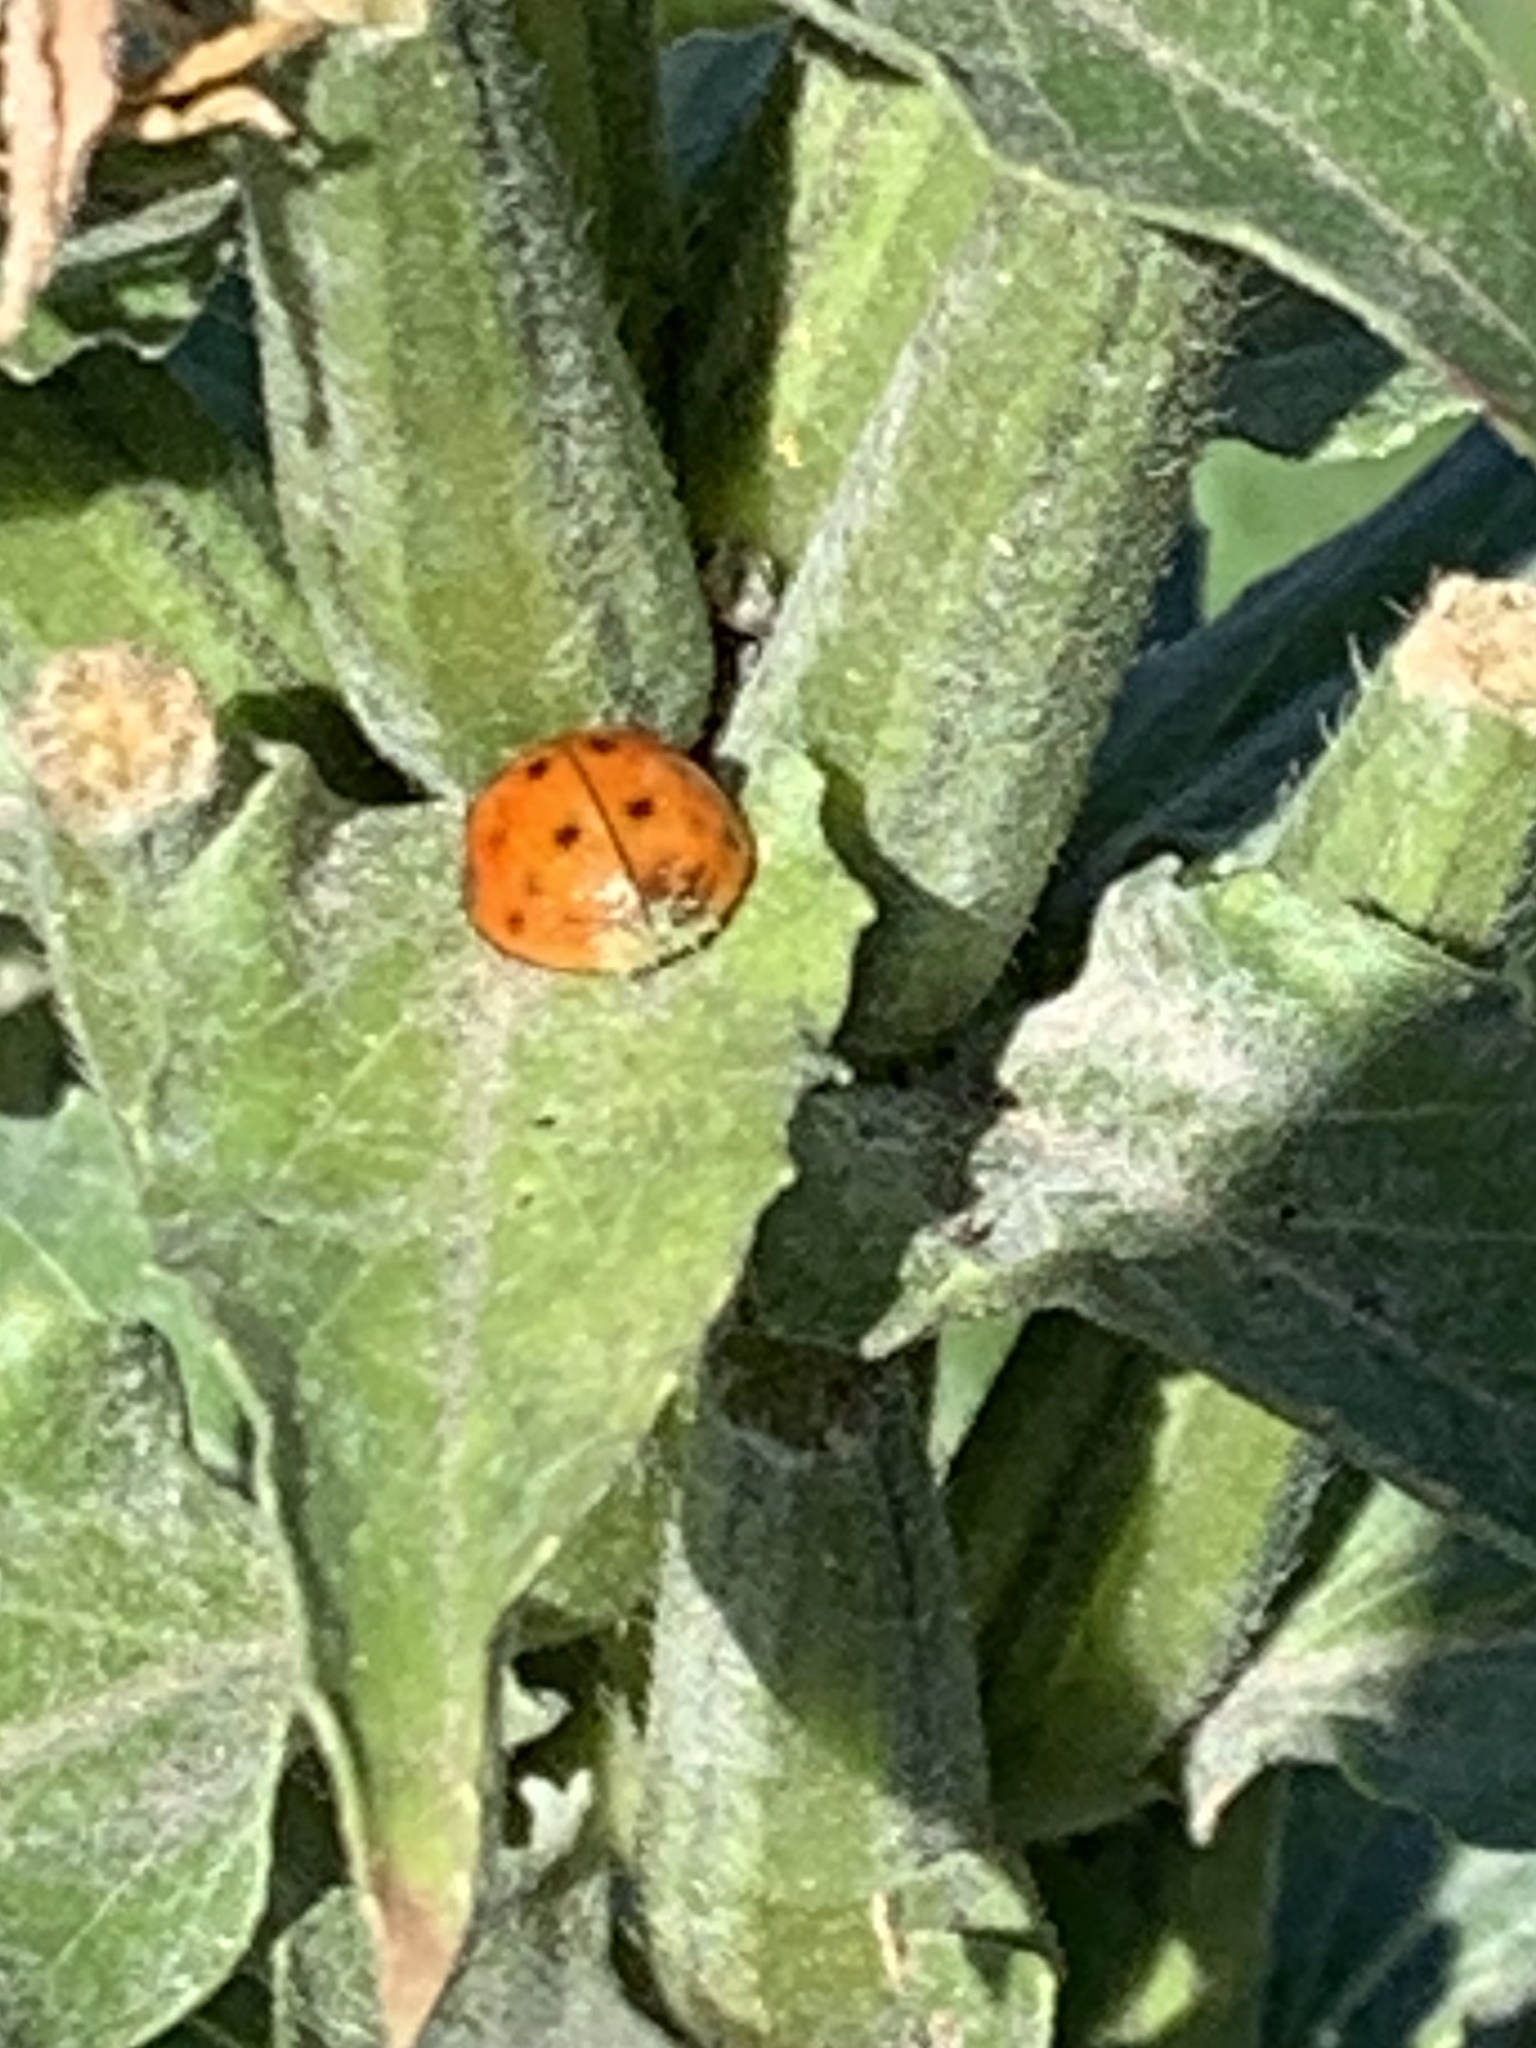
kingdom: Animalia
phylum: Arthropoda
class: Insecta
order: Coleoptera
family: Coccinellidae
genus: Harmonia
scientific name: Harmonia axyridis
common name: Harlequin ladybird
